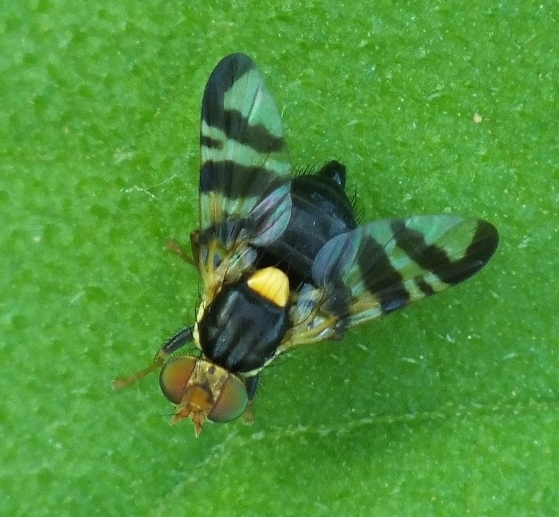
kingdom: Animalia
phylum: Arthropoda
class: Insecta
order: Diptera
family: Tephritidae
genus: Rhagoletis
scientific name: Rhagoletis cerasi
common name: European cherry fruit fly
